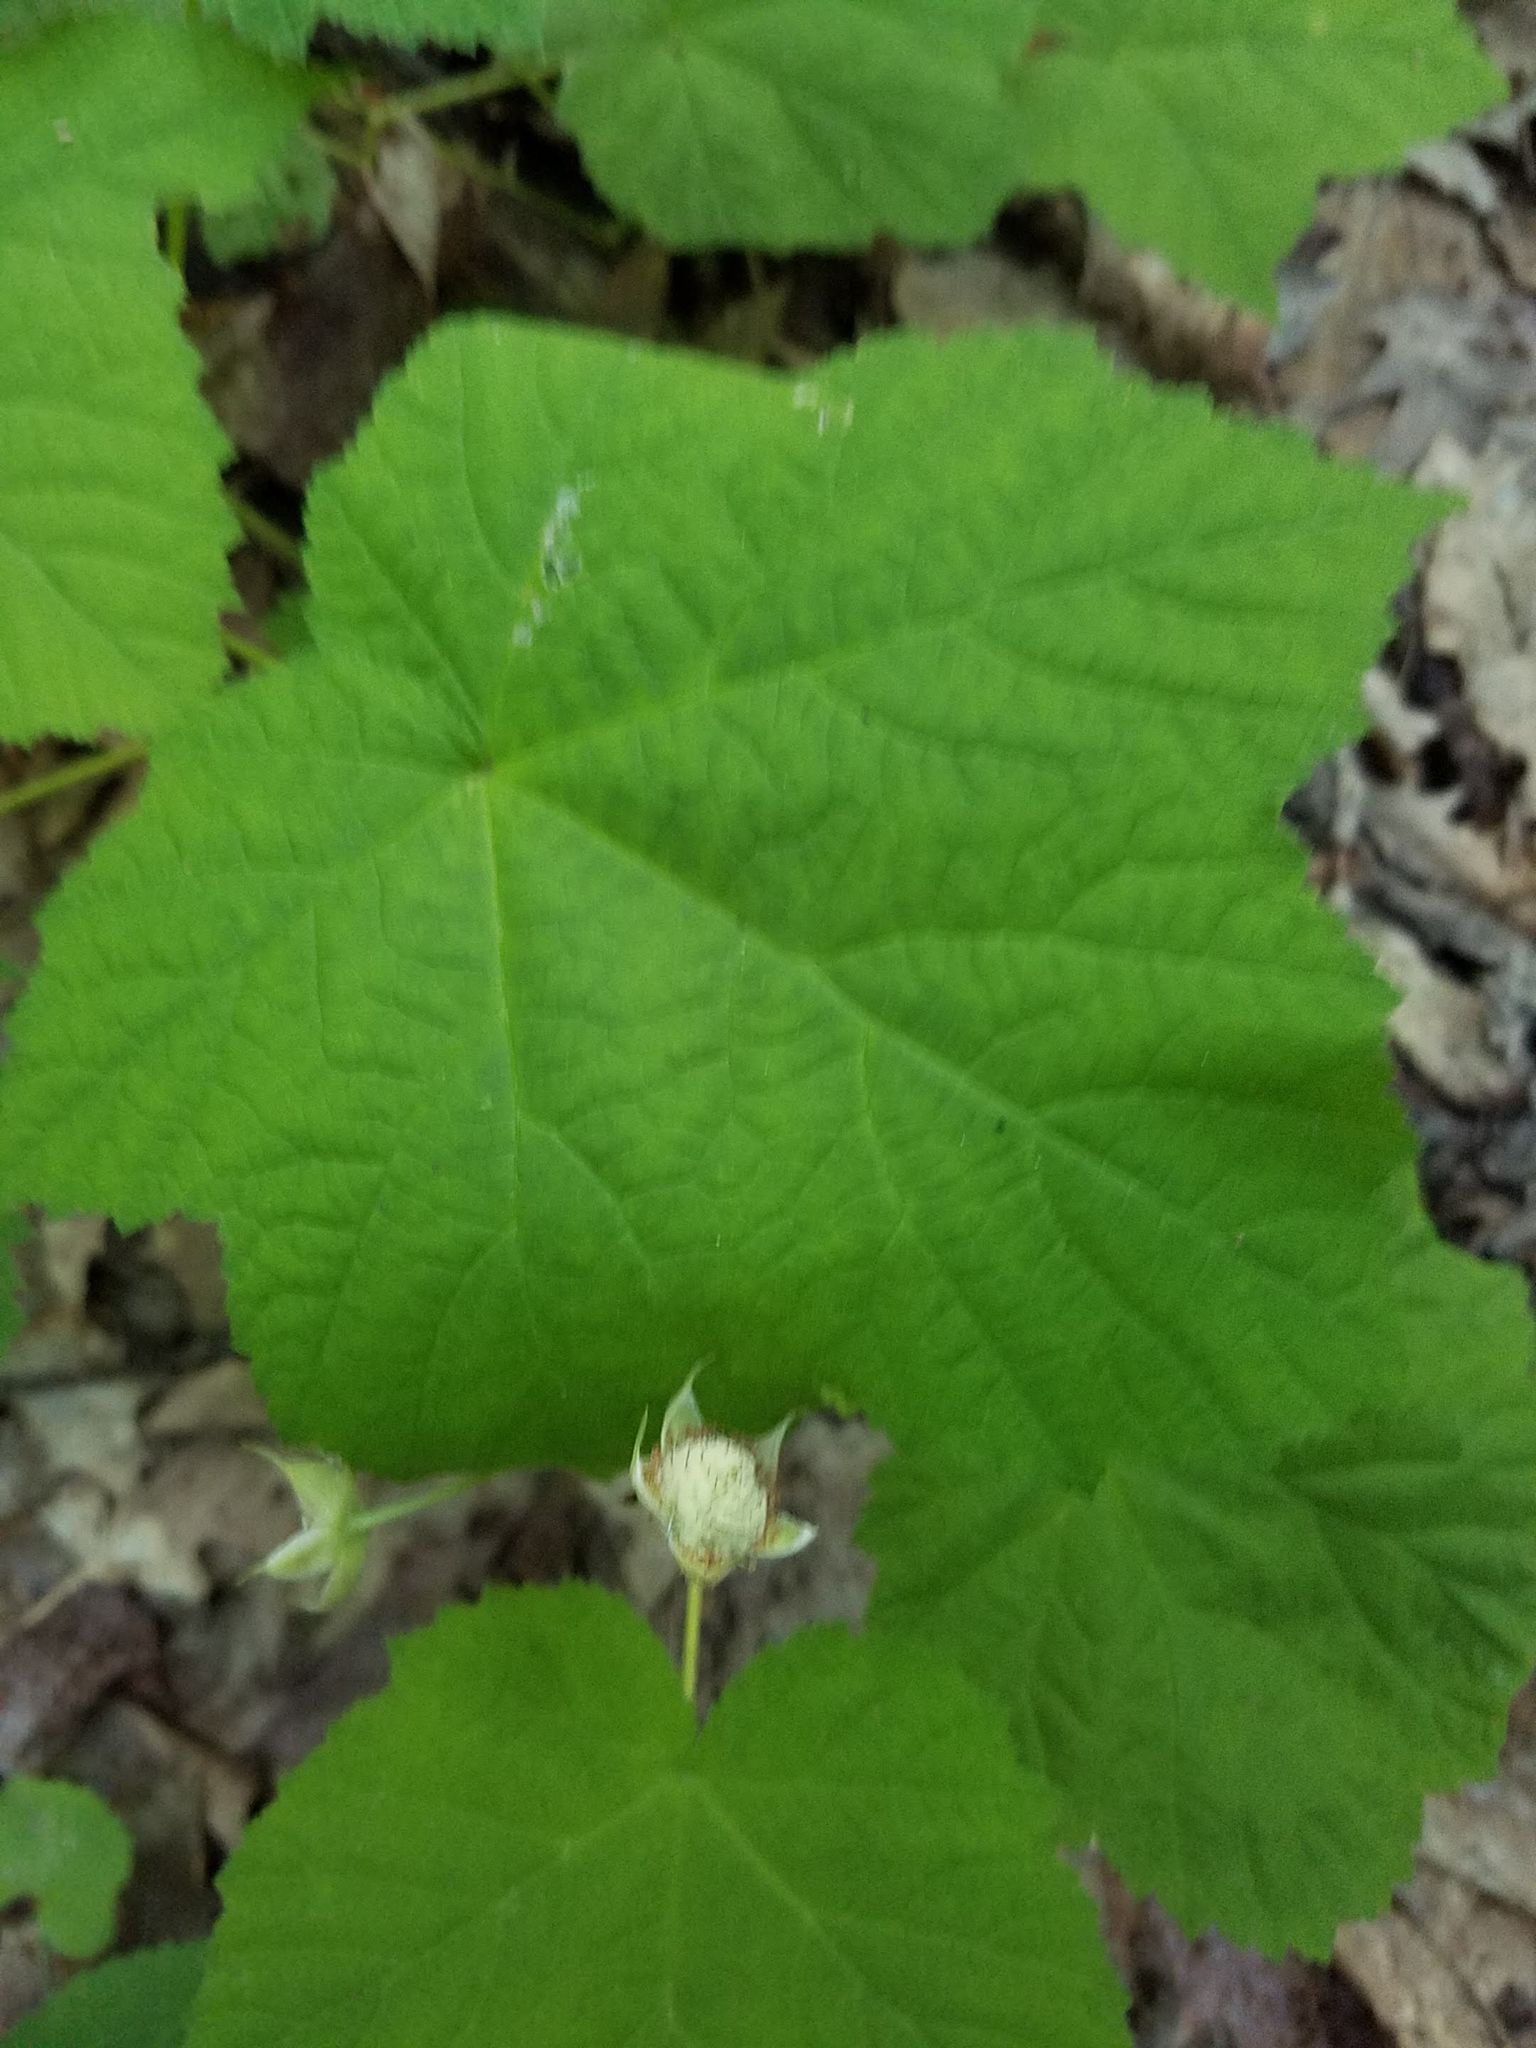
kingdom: Plantae
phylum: Tracheophyta
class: Magnoliopsida
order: Rosales
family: Rosaceae
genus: Rubus
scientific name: Rubus parviflorus
